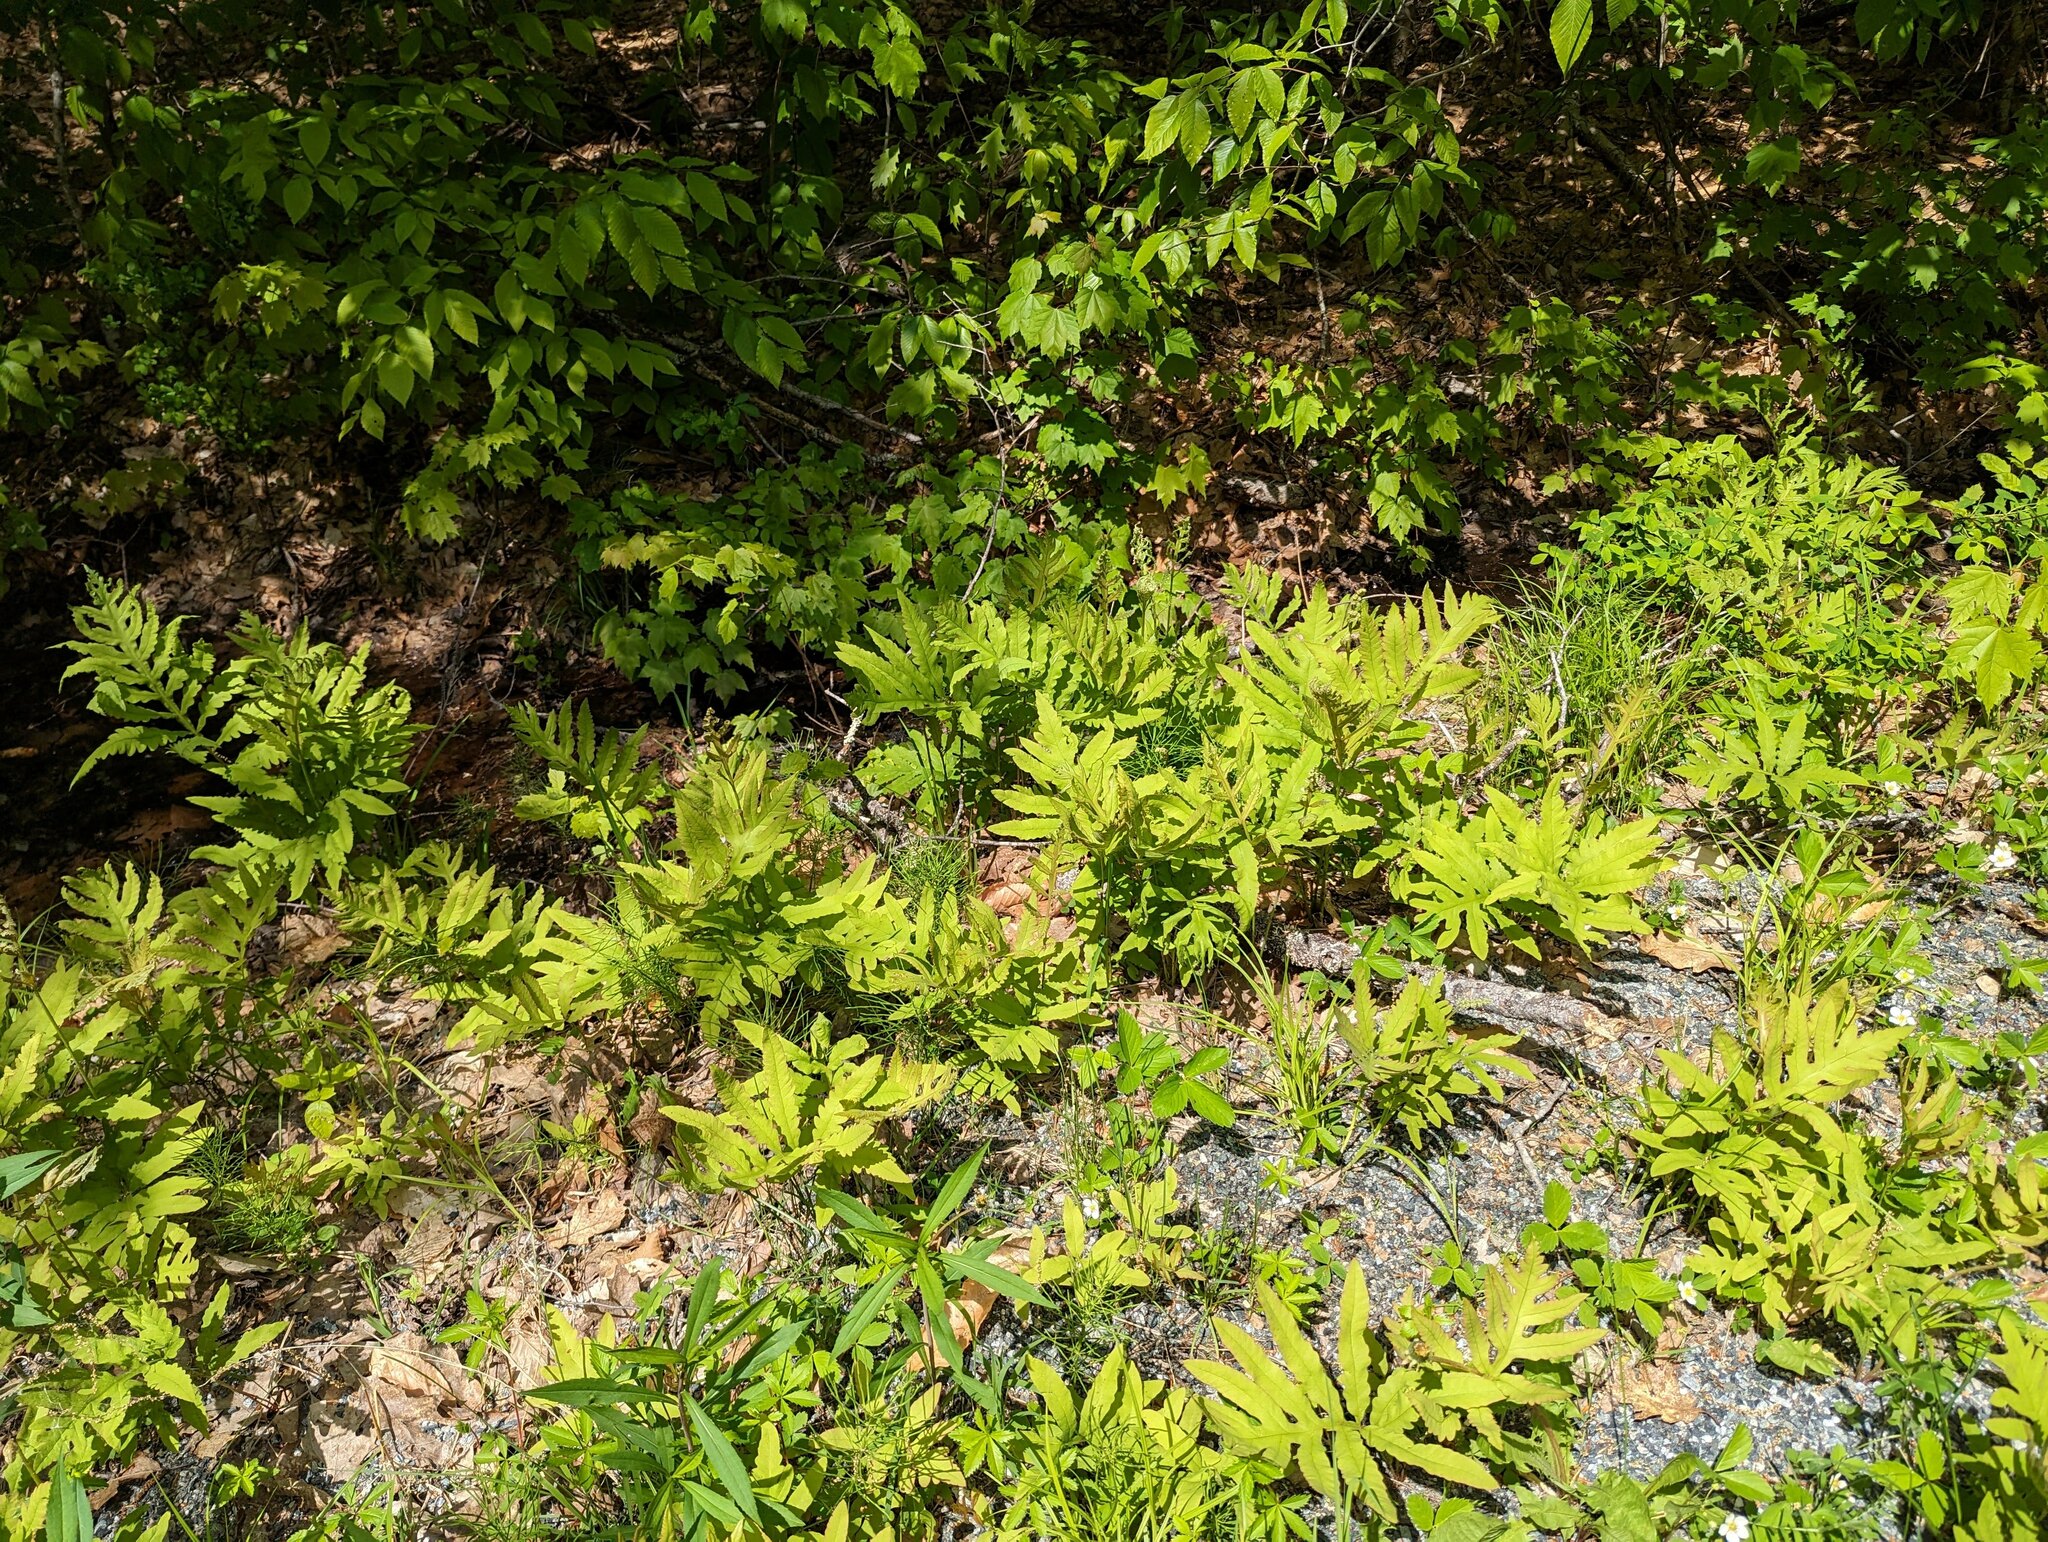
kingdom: Plantae
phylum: Tracheophyta
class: Polypodiopsida
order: Polypodiales
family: Onocleaceae
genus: Onoclea
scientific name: Onoclea sensibilis
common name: Sensitive fern
